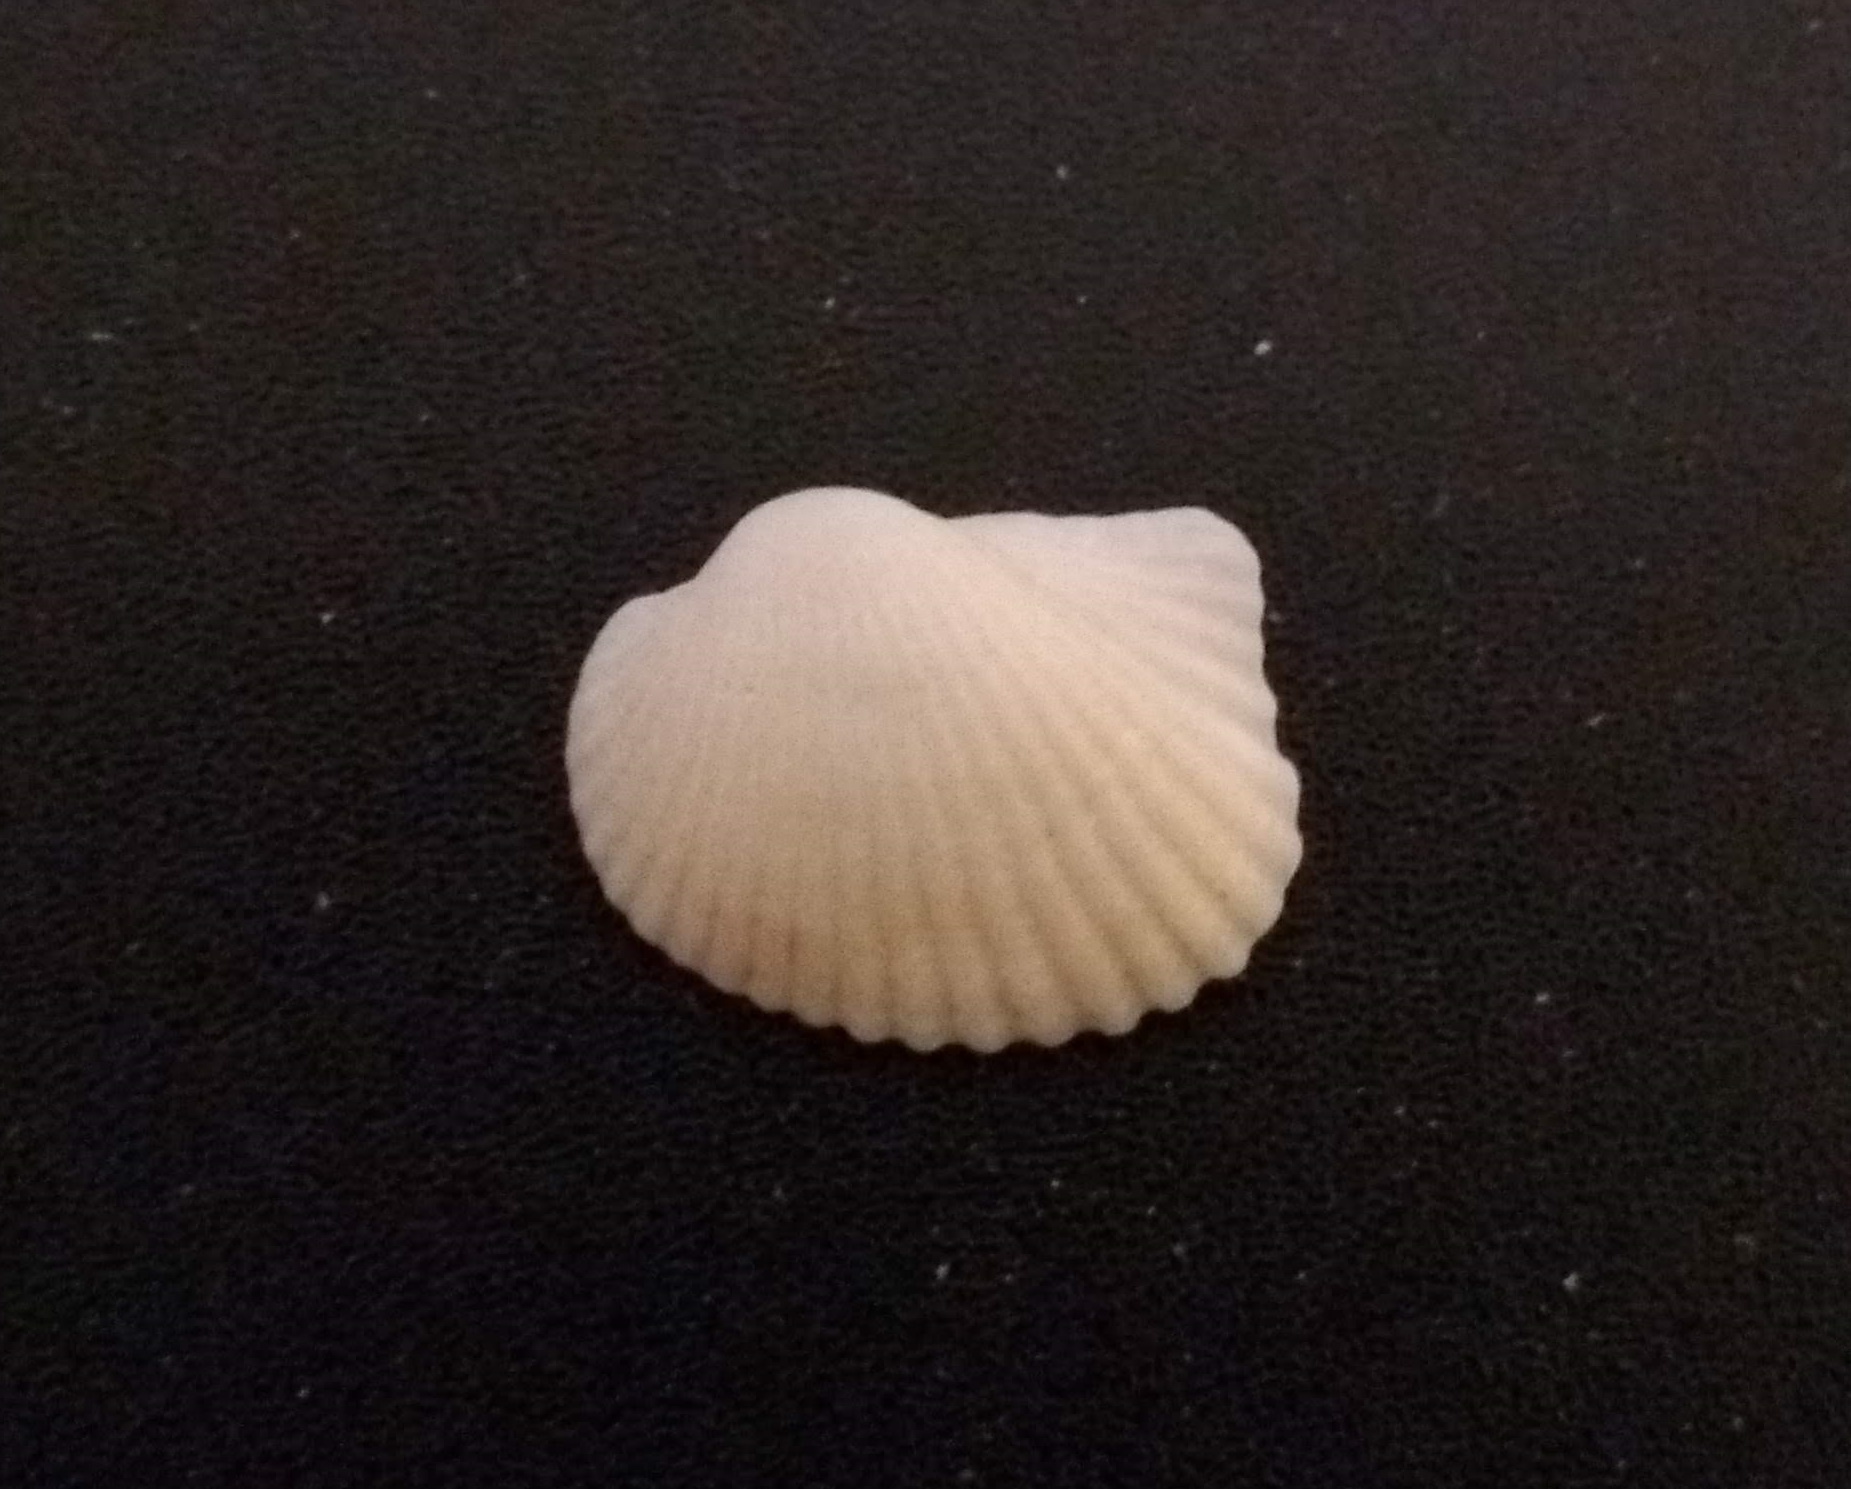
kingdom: Animalia
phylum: Mollusca
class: Bivalvia
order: Arcida
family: Arcidae
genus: Anadara
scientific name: Anadara notabilis
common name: Eared ark
